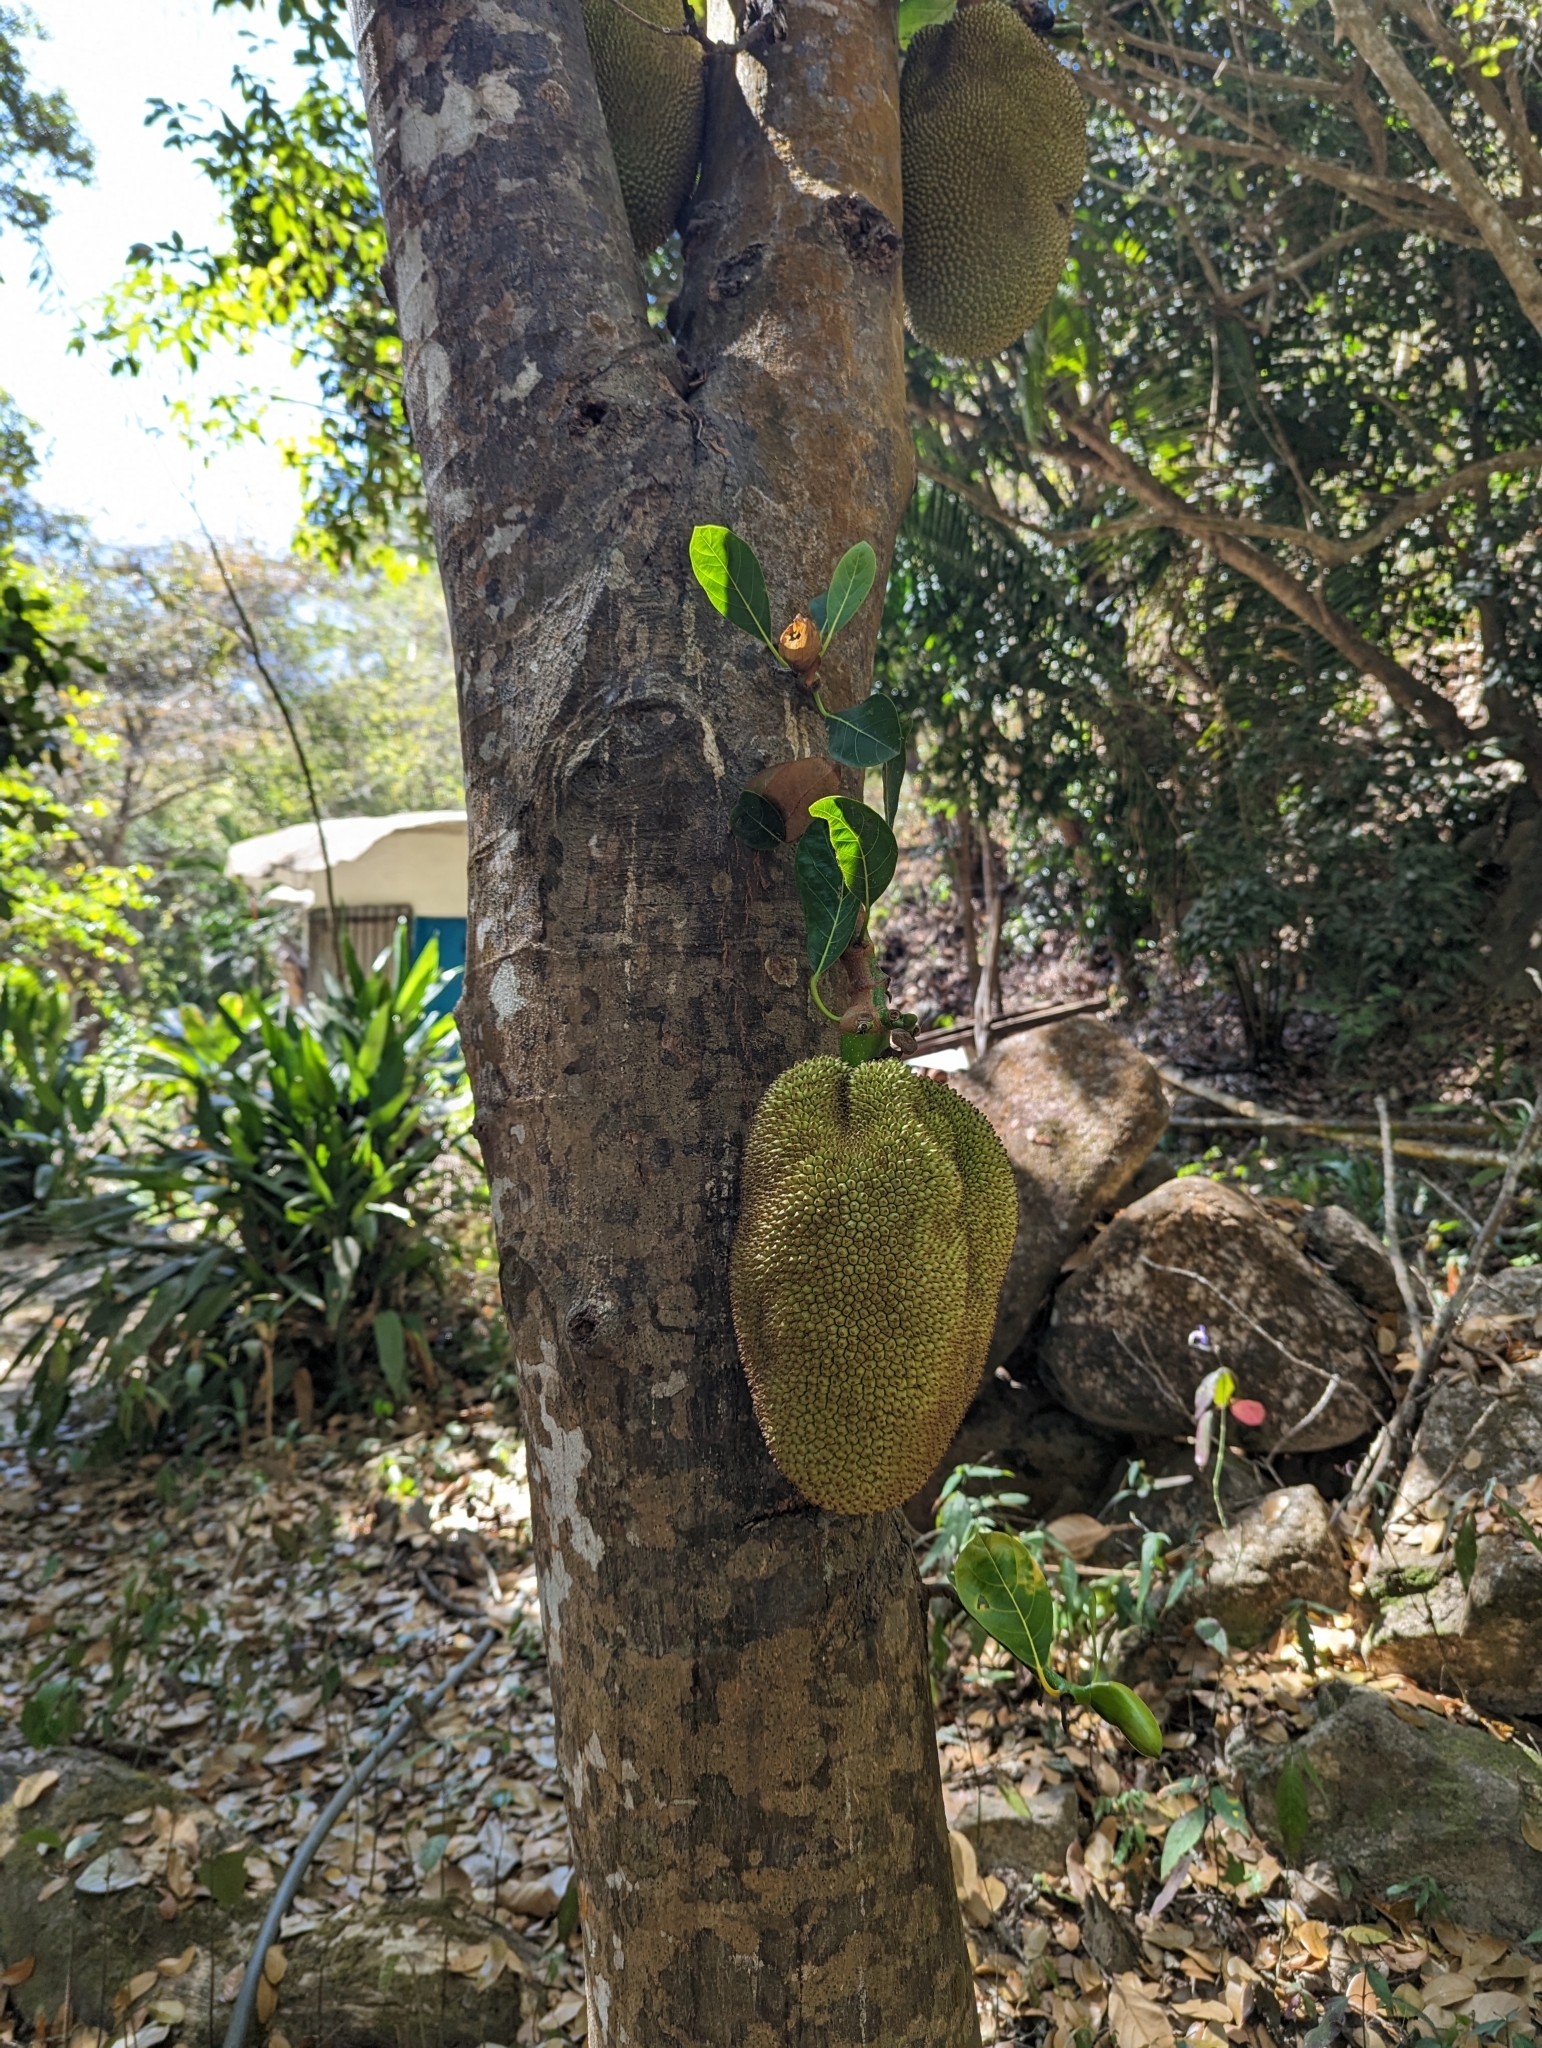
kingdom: Plantae
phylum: Tracheophyta
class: Magnoliopsida
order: Rosales
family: Moraceae
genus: Artocarpus
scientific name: Artocarpus heterophyllus
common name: Jackfruit
